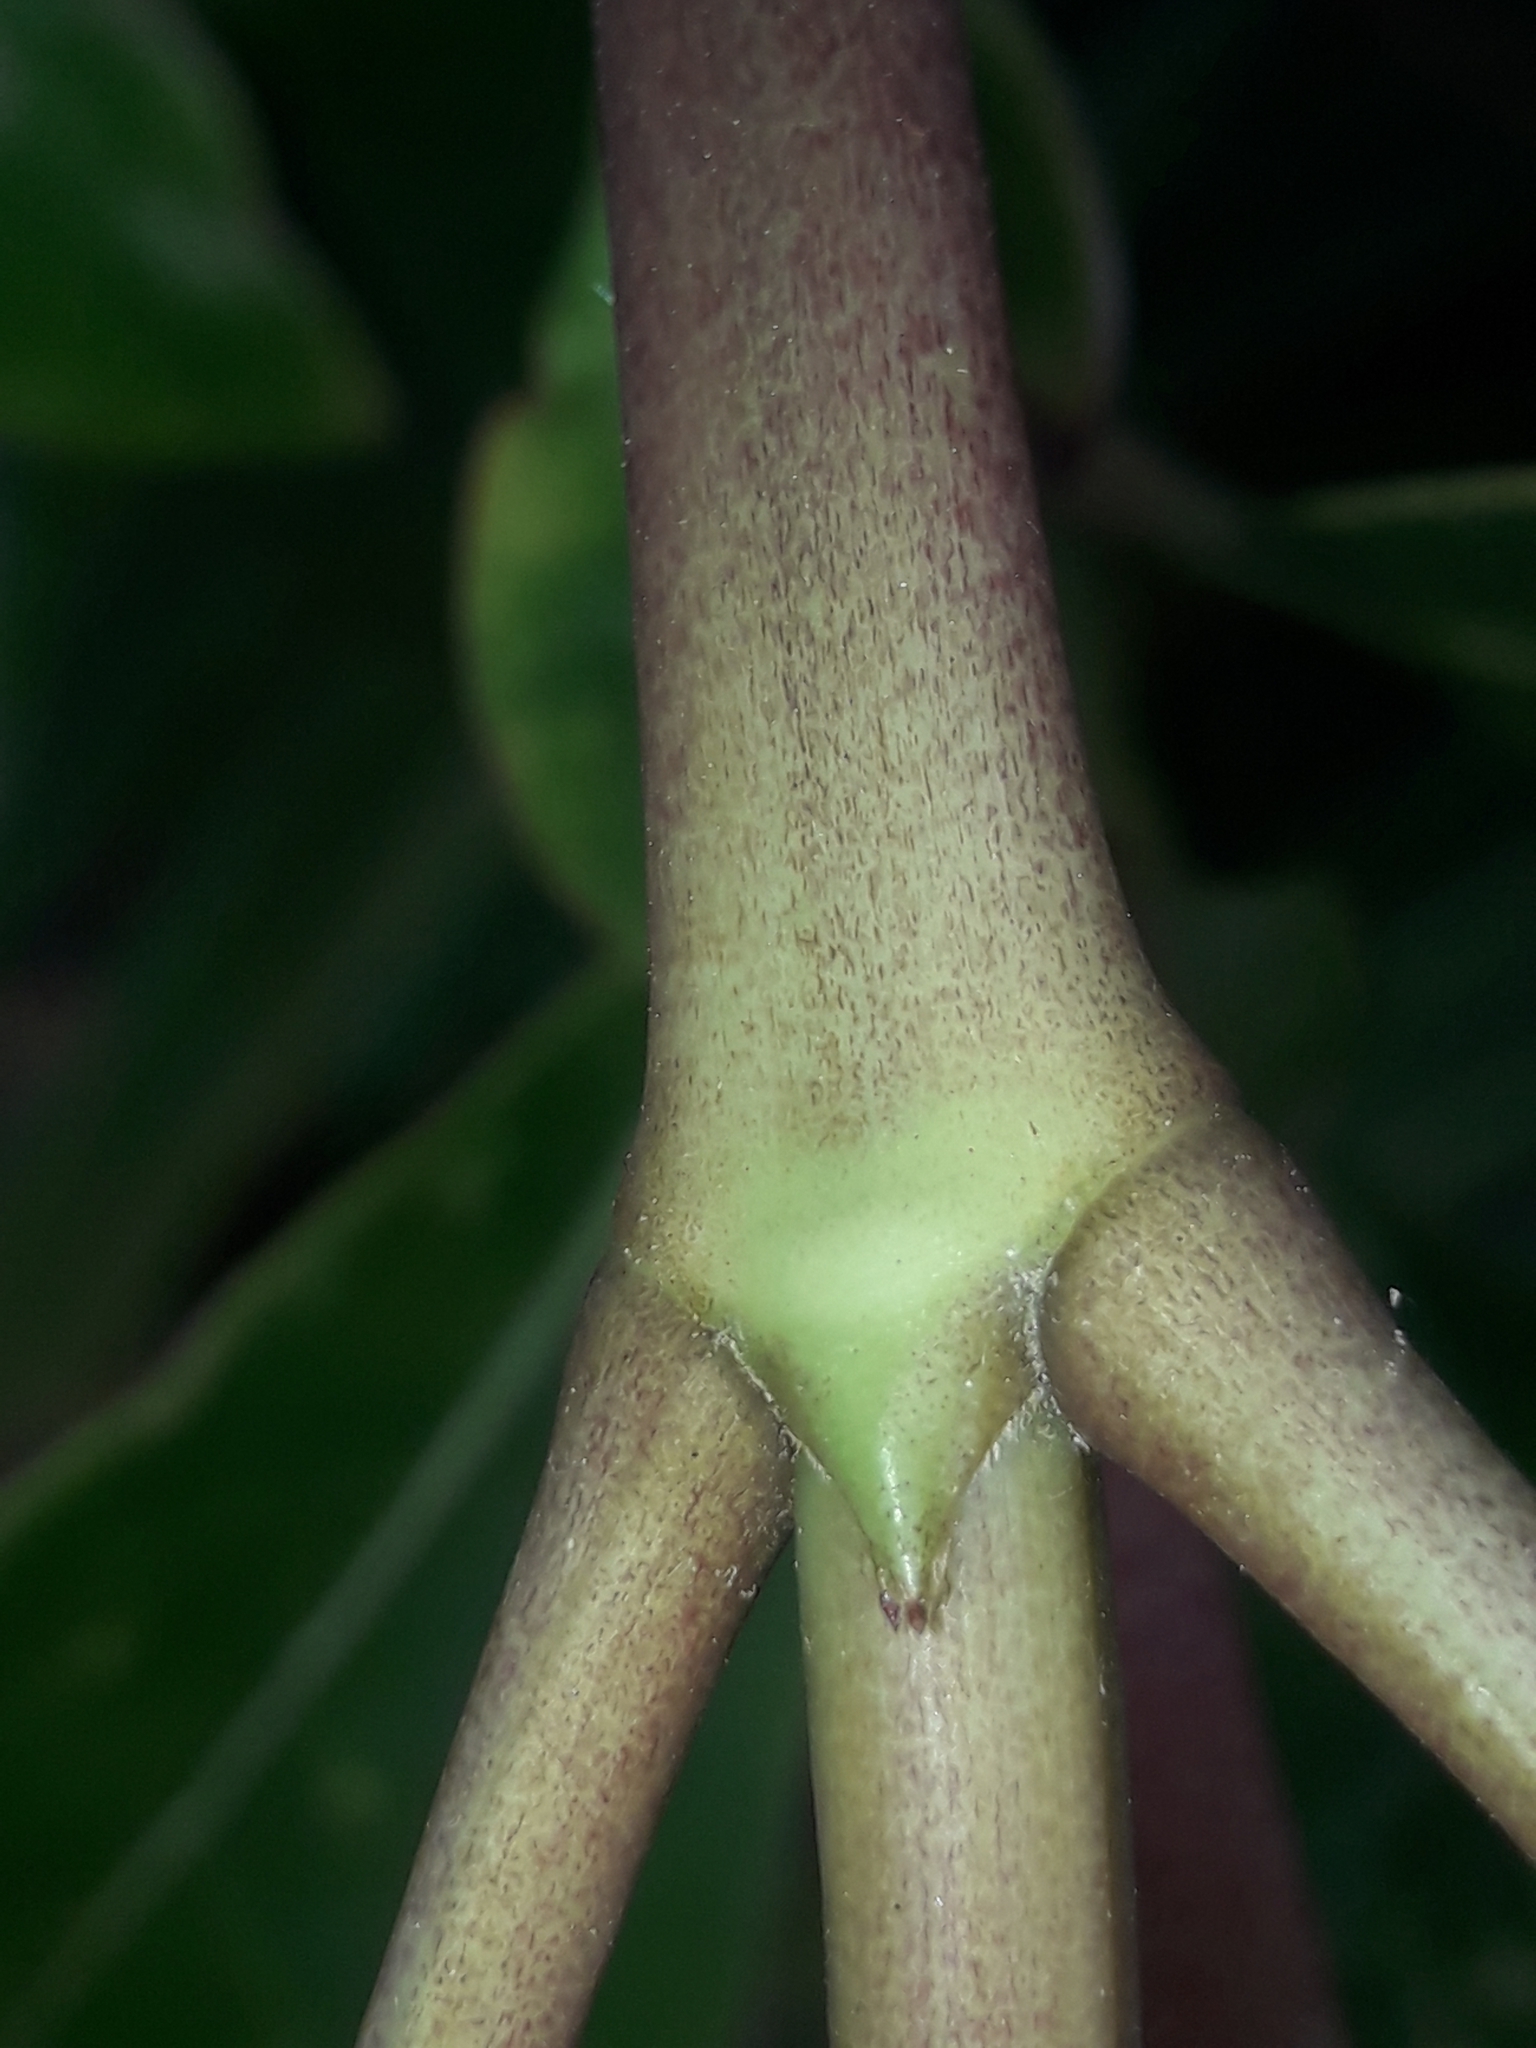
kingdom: Plantae
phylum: Tracheophyta
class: Magnoliopsida
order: Gentianales
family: Rubiaceae
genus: Coprosma
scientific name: Coprosma lucida
